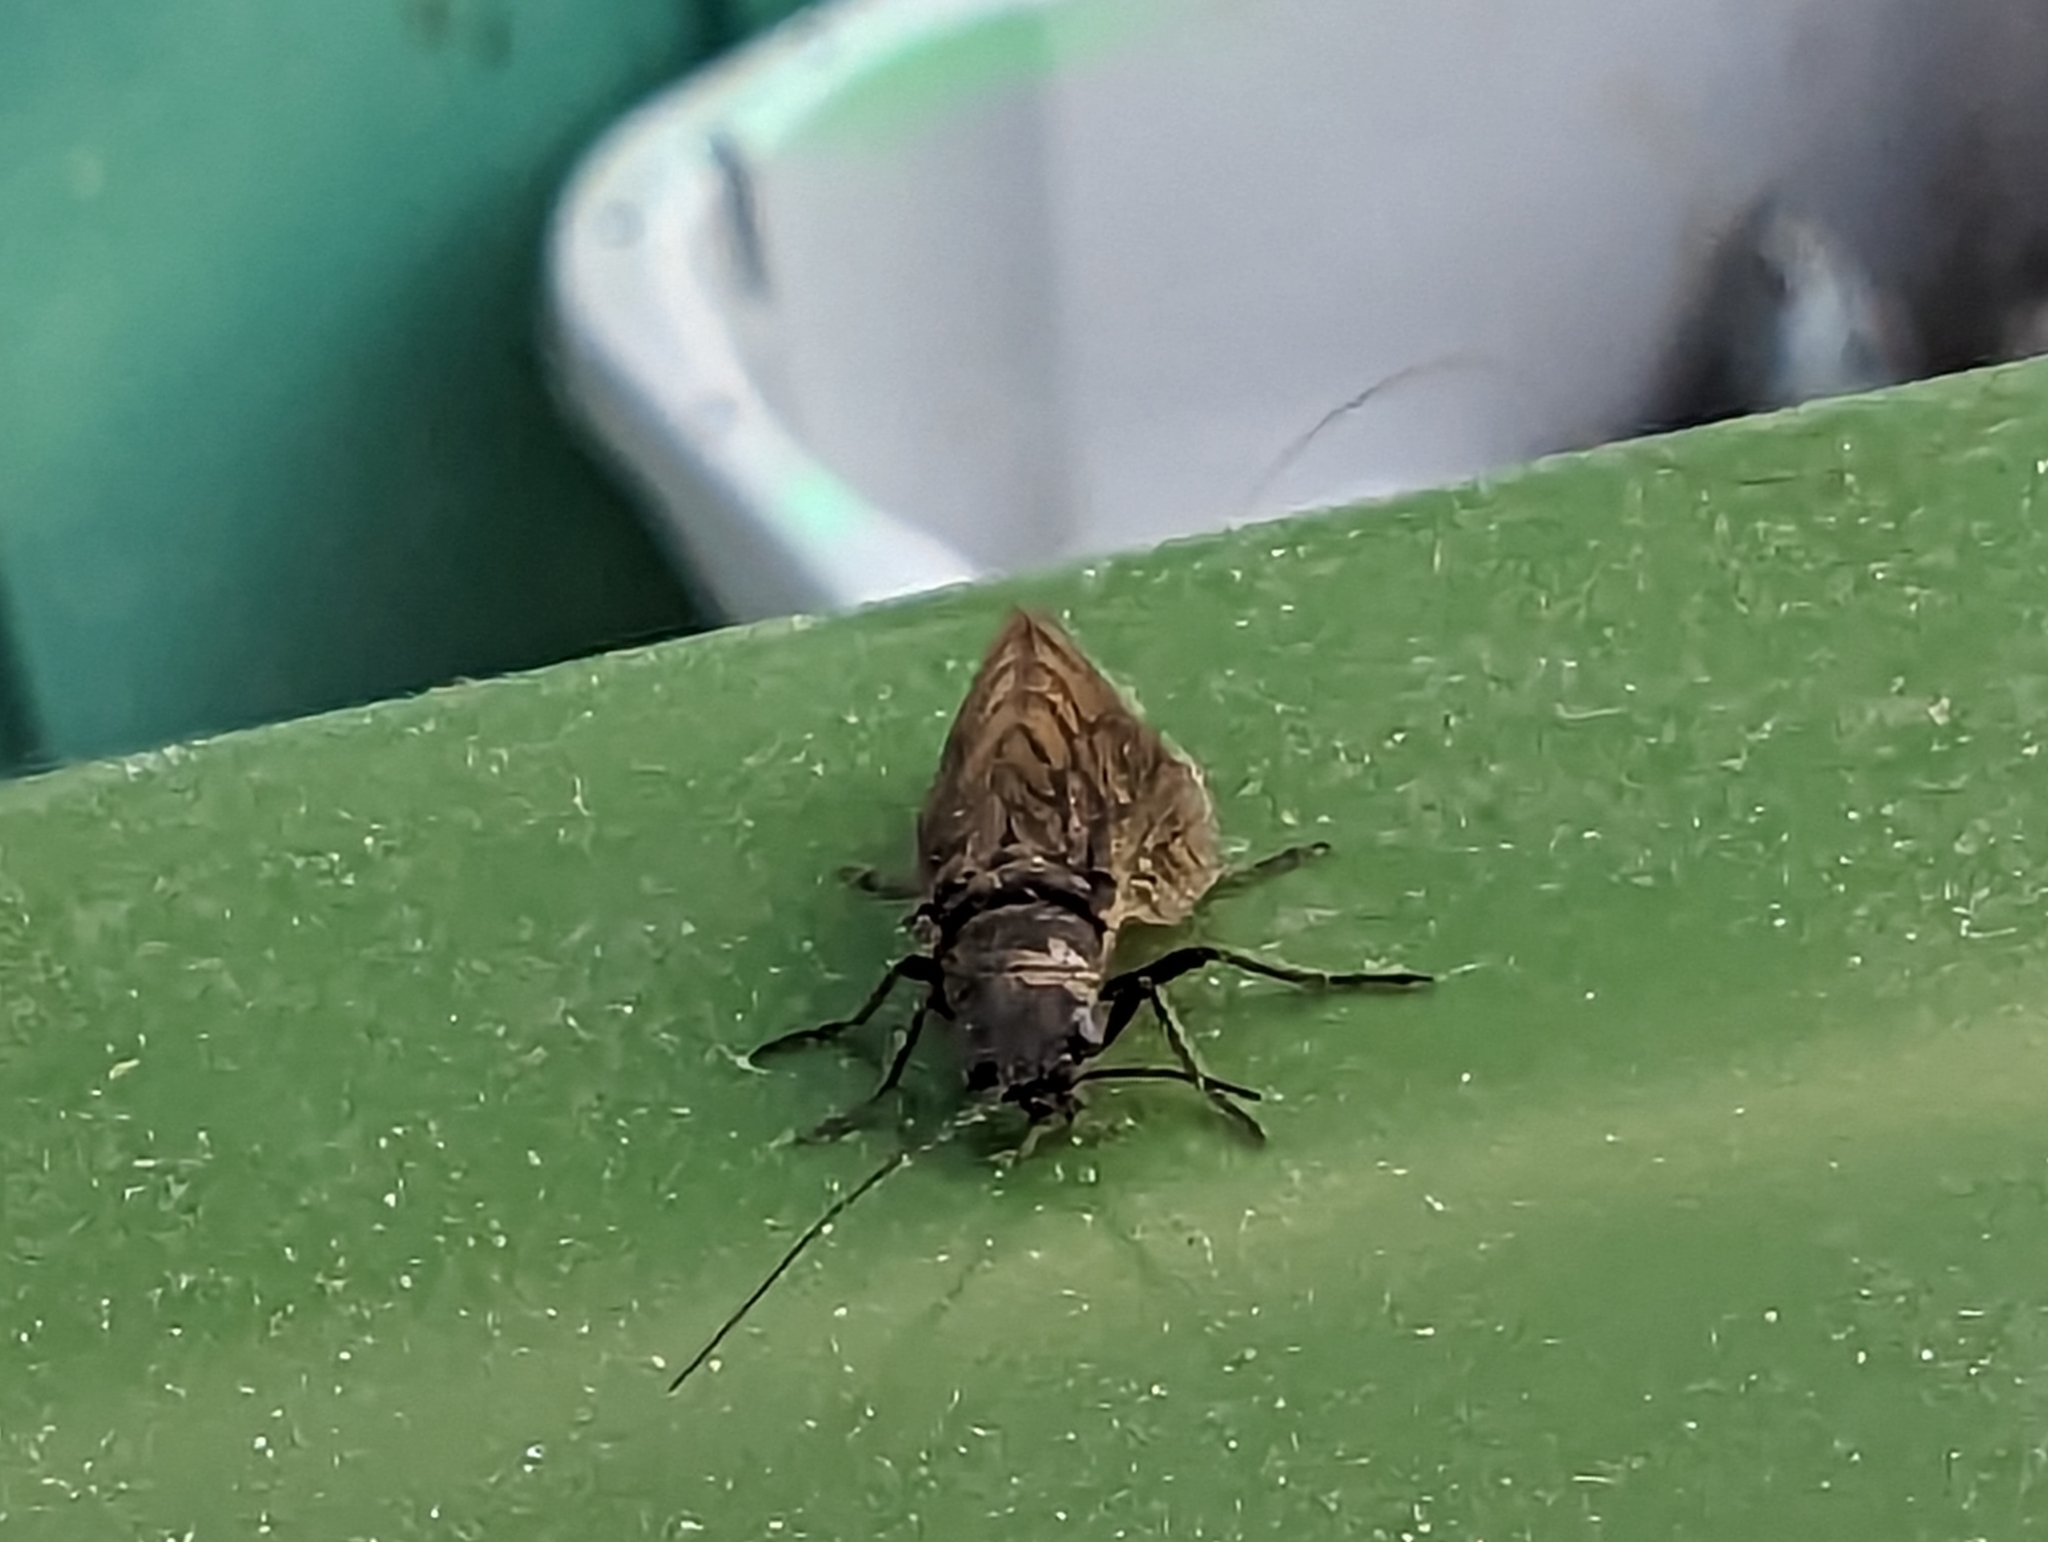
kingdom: Animalia
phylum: Arthropoda
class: Insecta
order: Megaloptera
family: Sialidae
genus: Sialis
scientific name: Sialis
